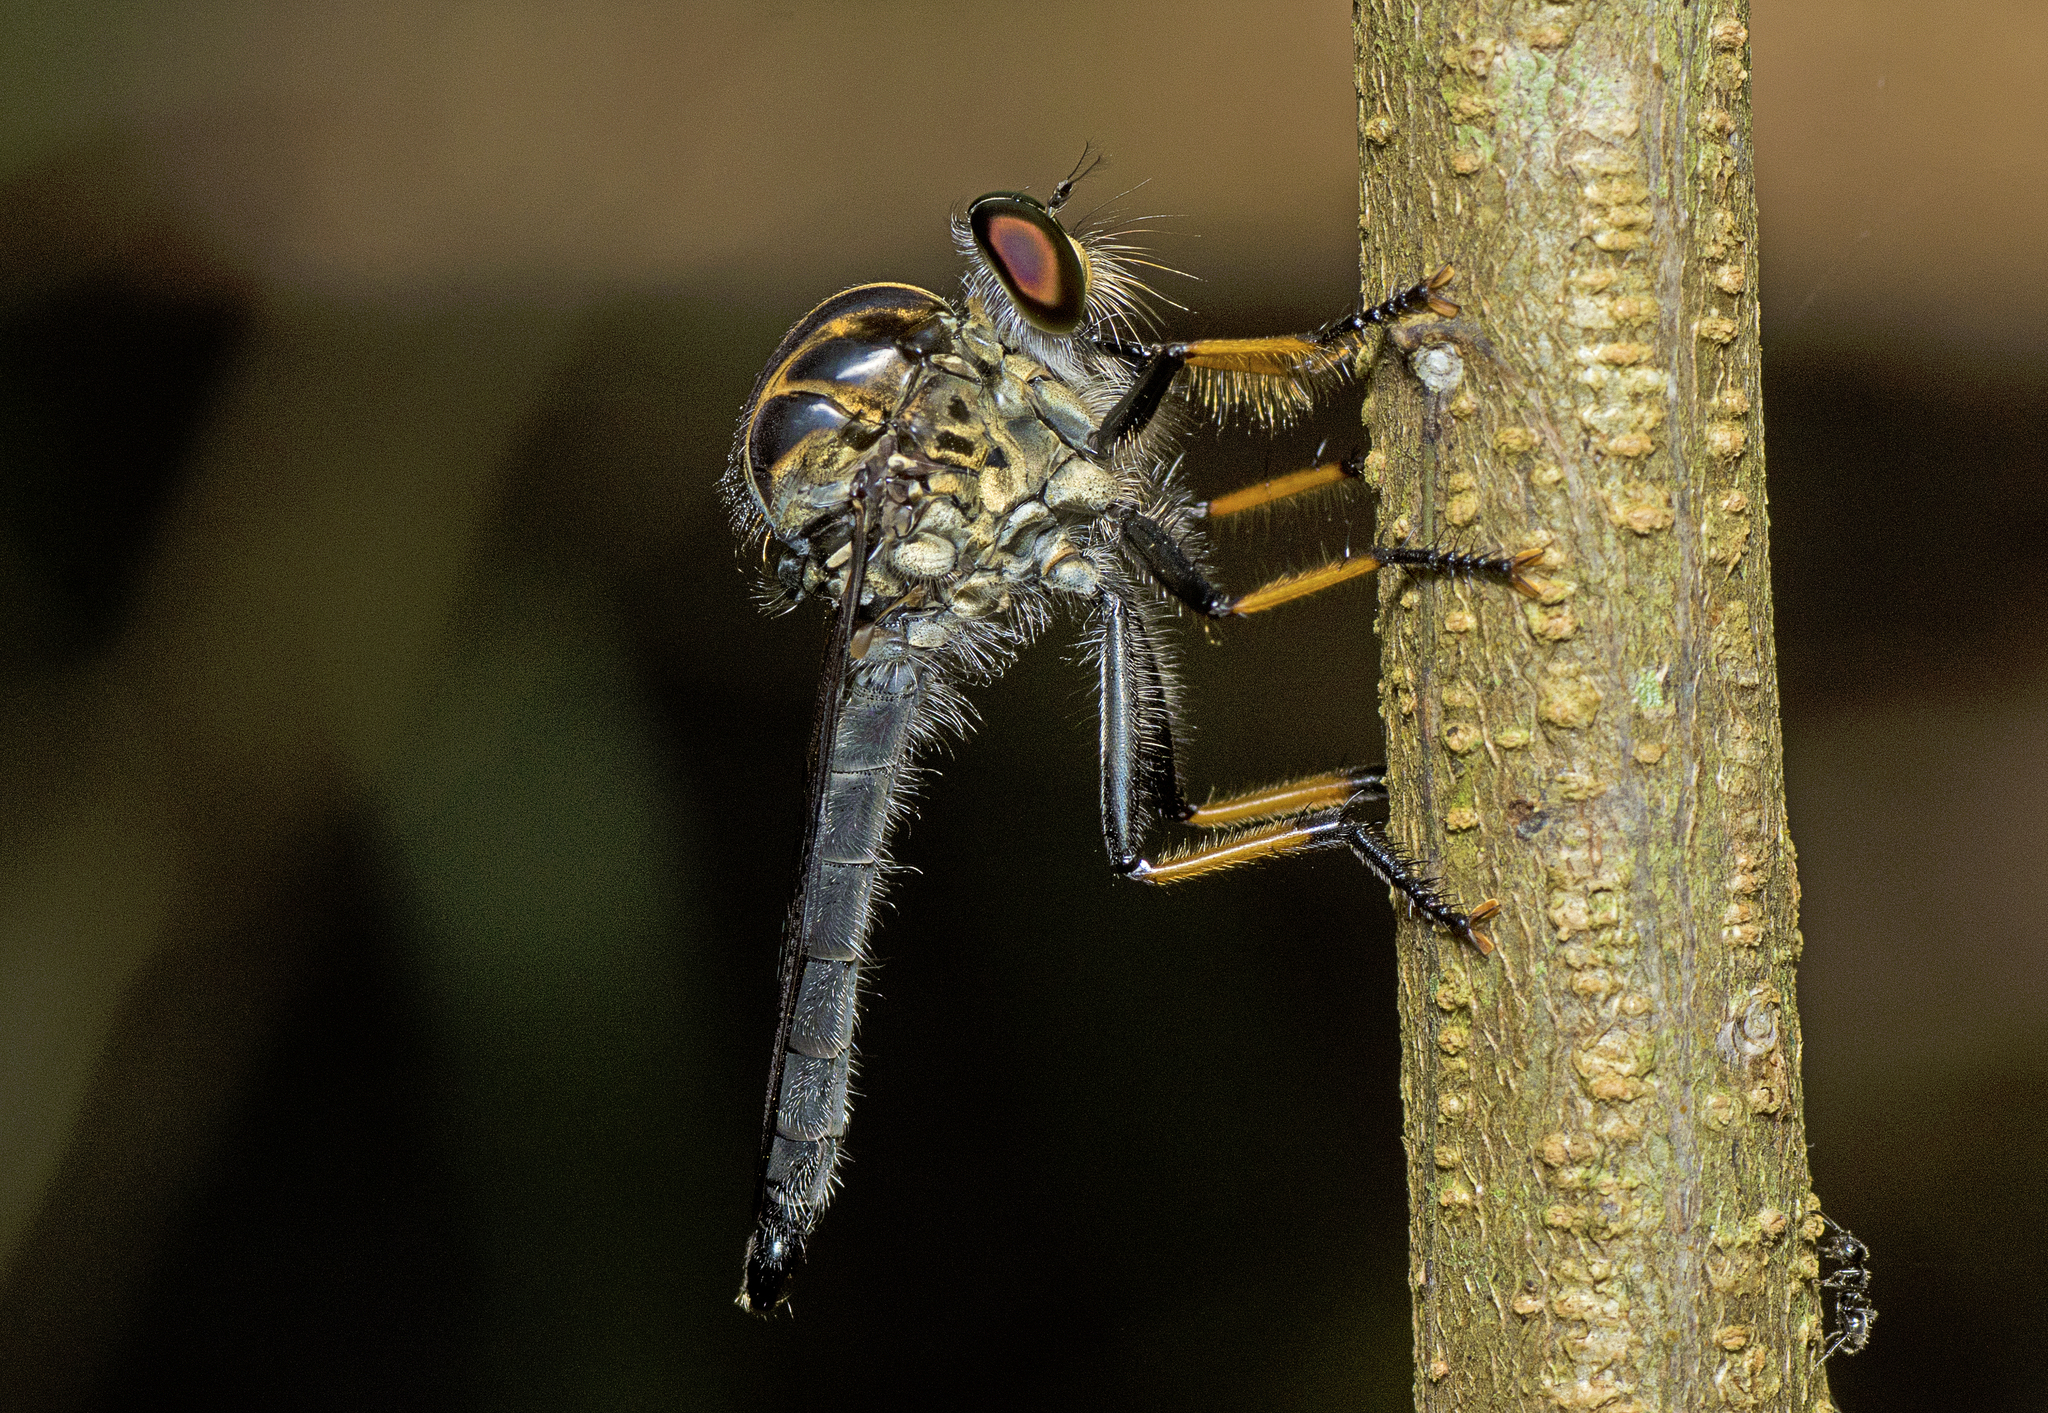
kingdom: Animalia
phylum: Arthropoda
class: Insecta
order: Diptera
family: Asilidae
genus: Ommatius
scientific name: Ommatius coeraebus
